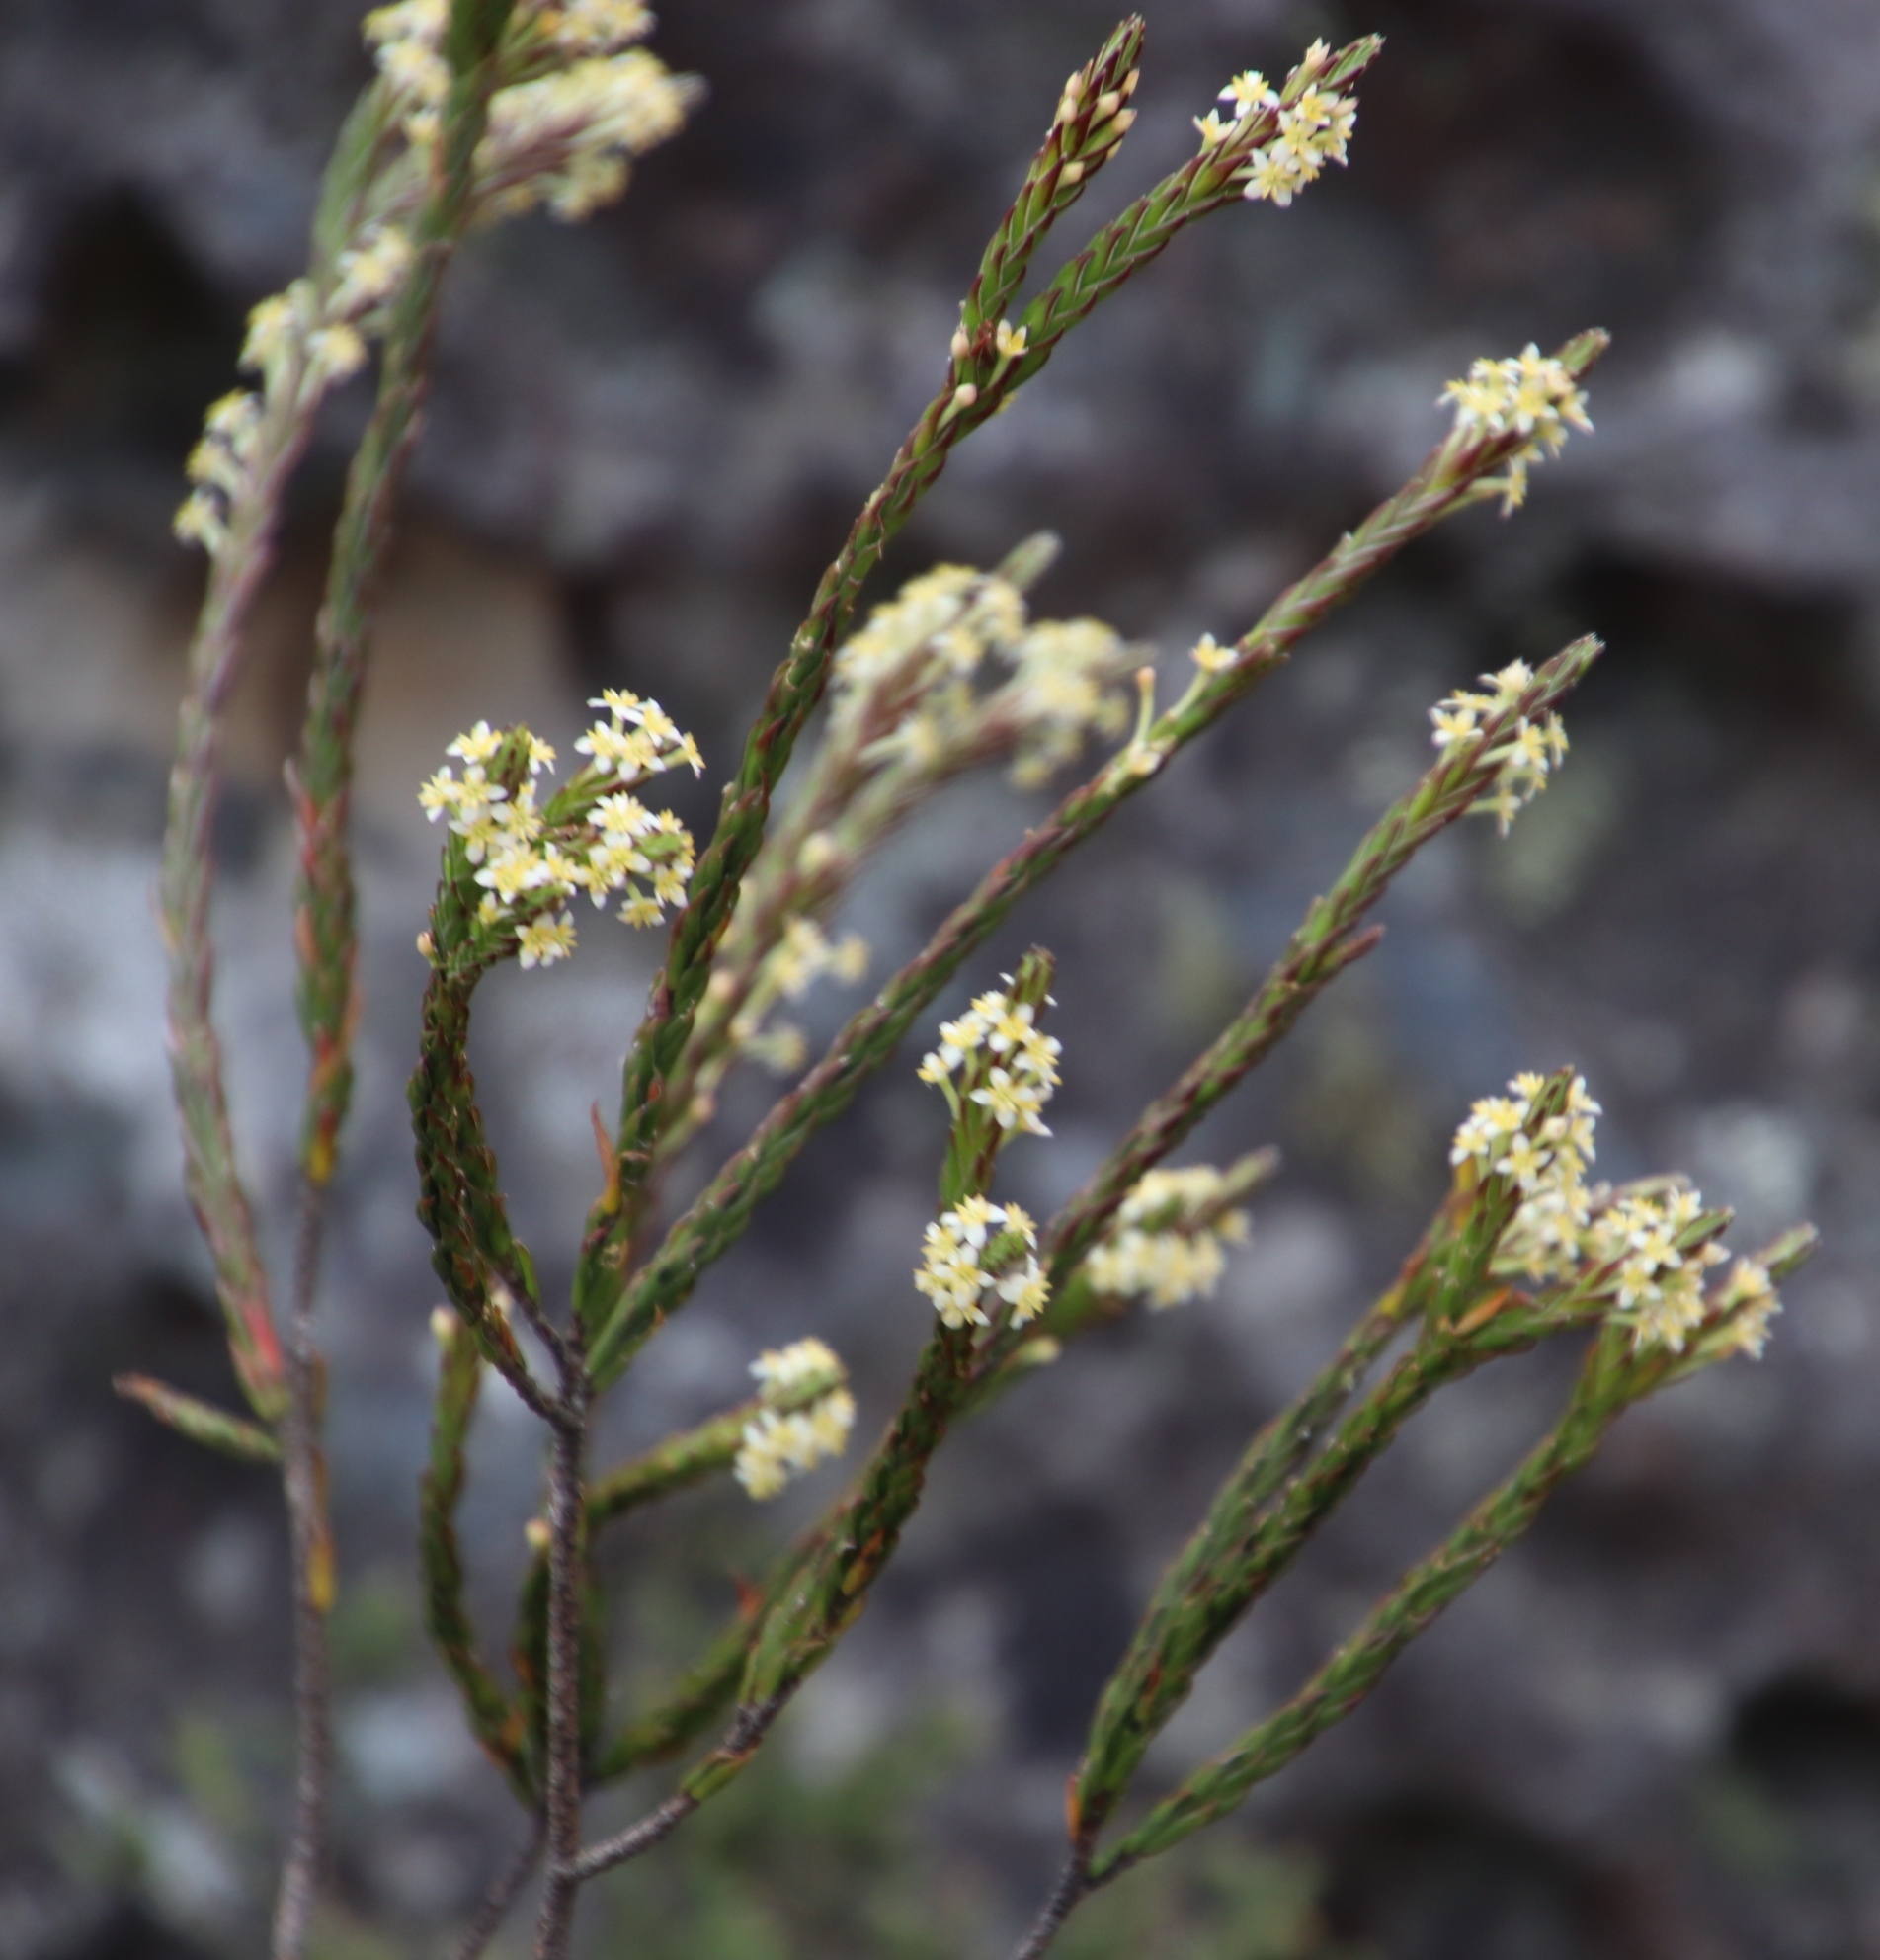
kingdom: Plantae
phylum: Tracheophyta
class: Magnoliopsida
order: Malvales
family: Thymelaeaceae
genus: Struthiola
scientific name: Struthiola ciliata
